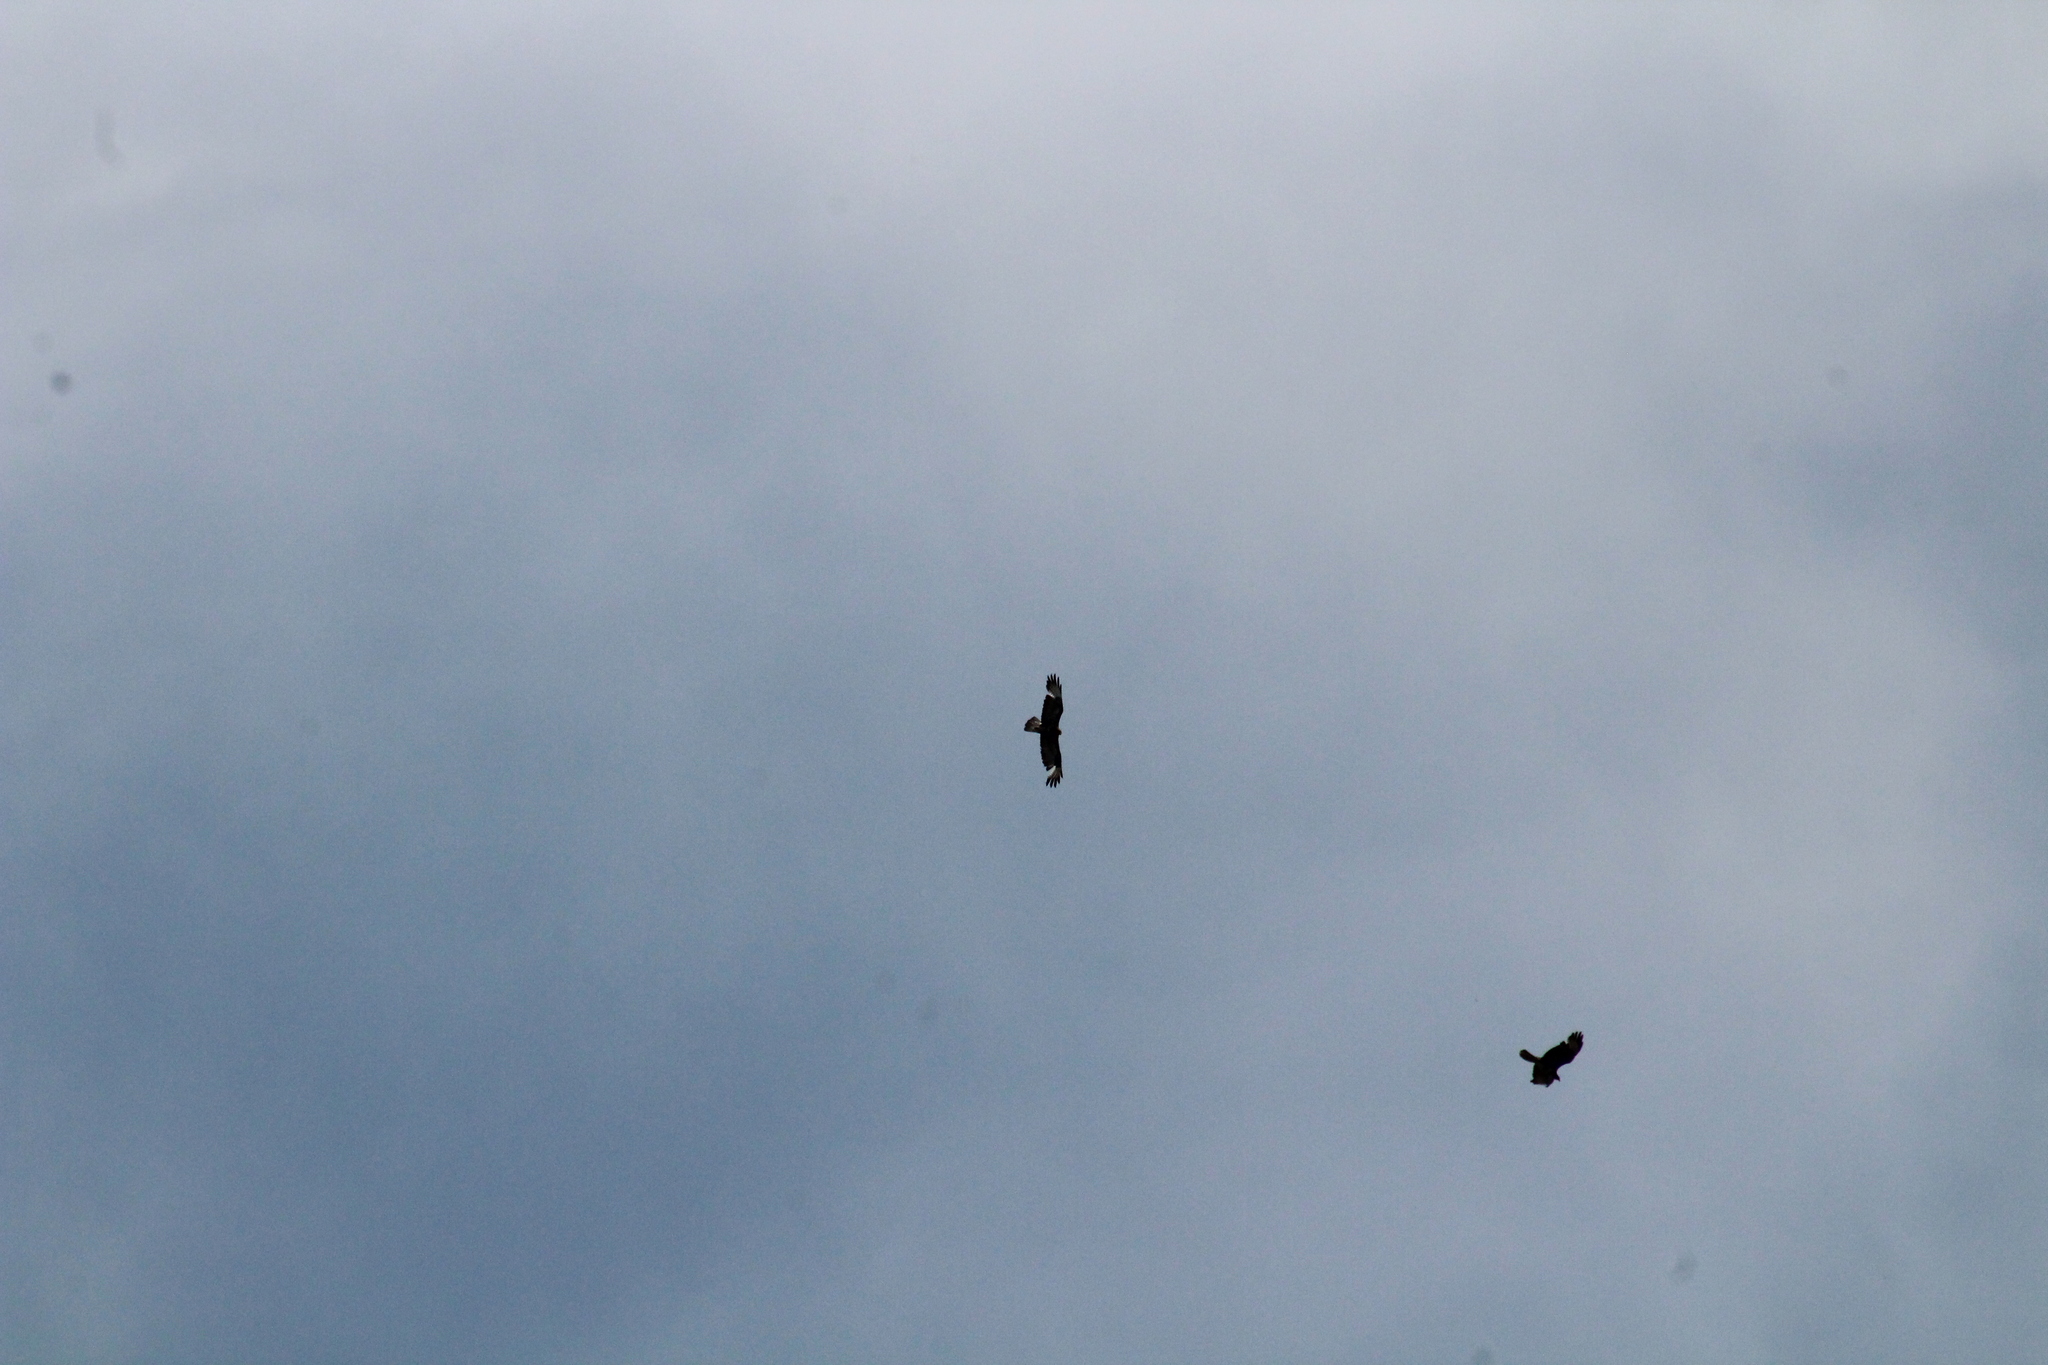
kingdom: Animalia
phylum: Chordata
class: Aves
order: Accipitriformes
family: Accipitridae
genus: Buteo
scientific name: Buteo buteo
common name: Common buzzard
